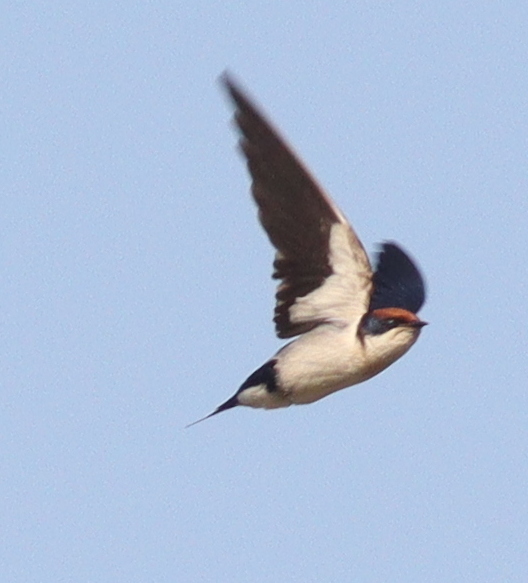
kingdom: Animalia
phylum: Chordata
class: Aves
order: Passeriformes
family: Hirundinidae
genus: Hirundo
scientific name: Hirundo smithii
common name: Wire-tailed swallow
